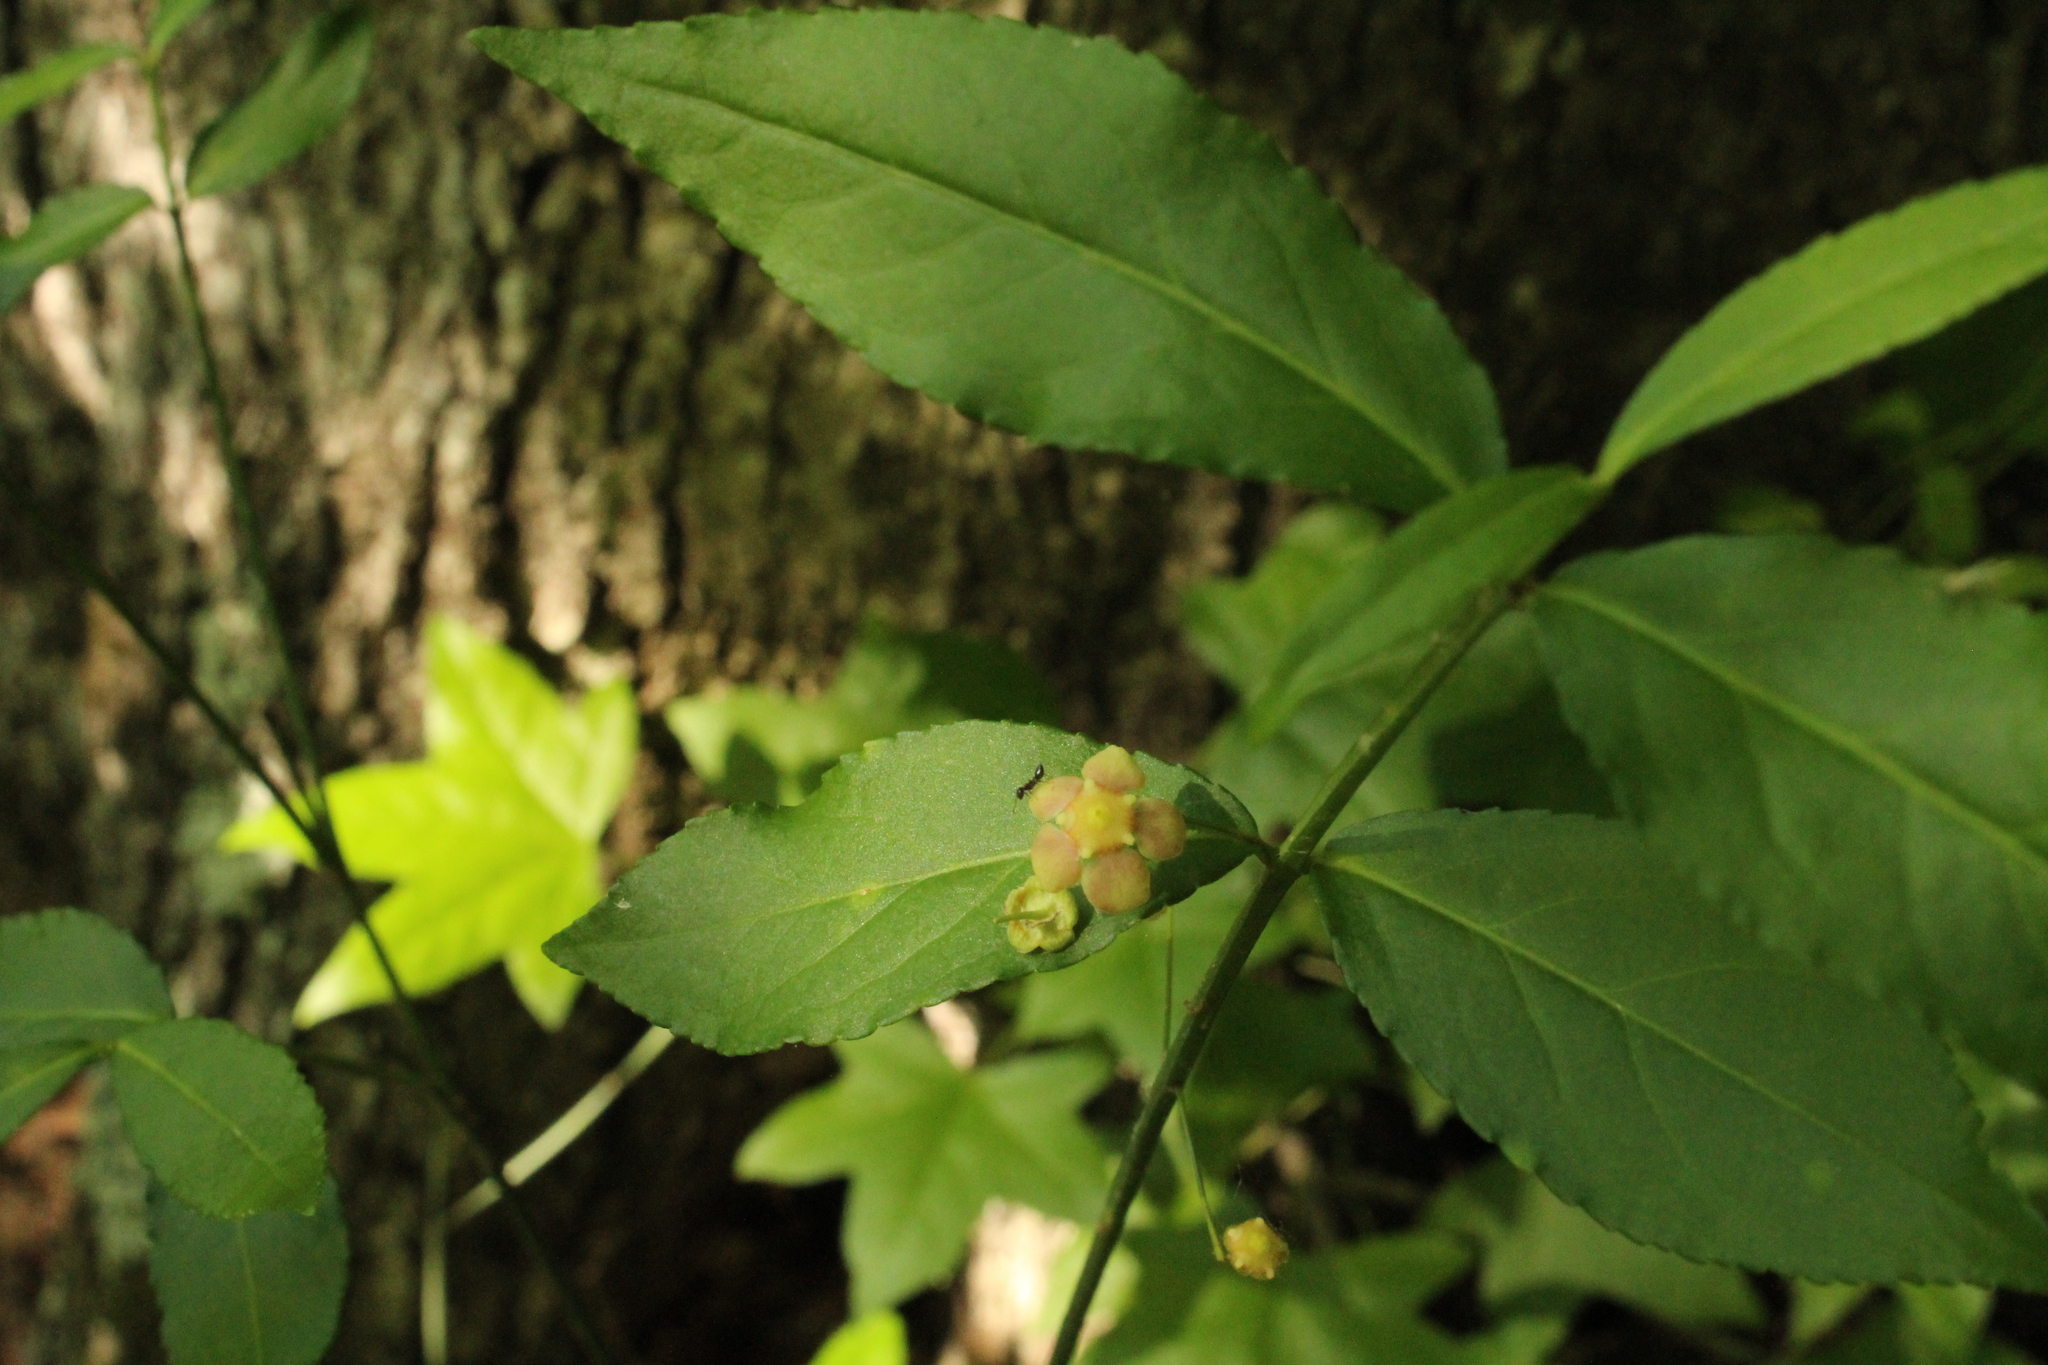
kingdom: Plantae
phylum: Tracheophyta
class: Magnoliopsida
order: Celastrales
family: Celastraceae
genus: Euonymus
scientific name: Euonymus americanus
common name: Bursting-heart
